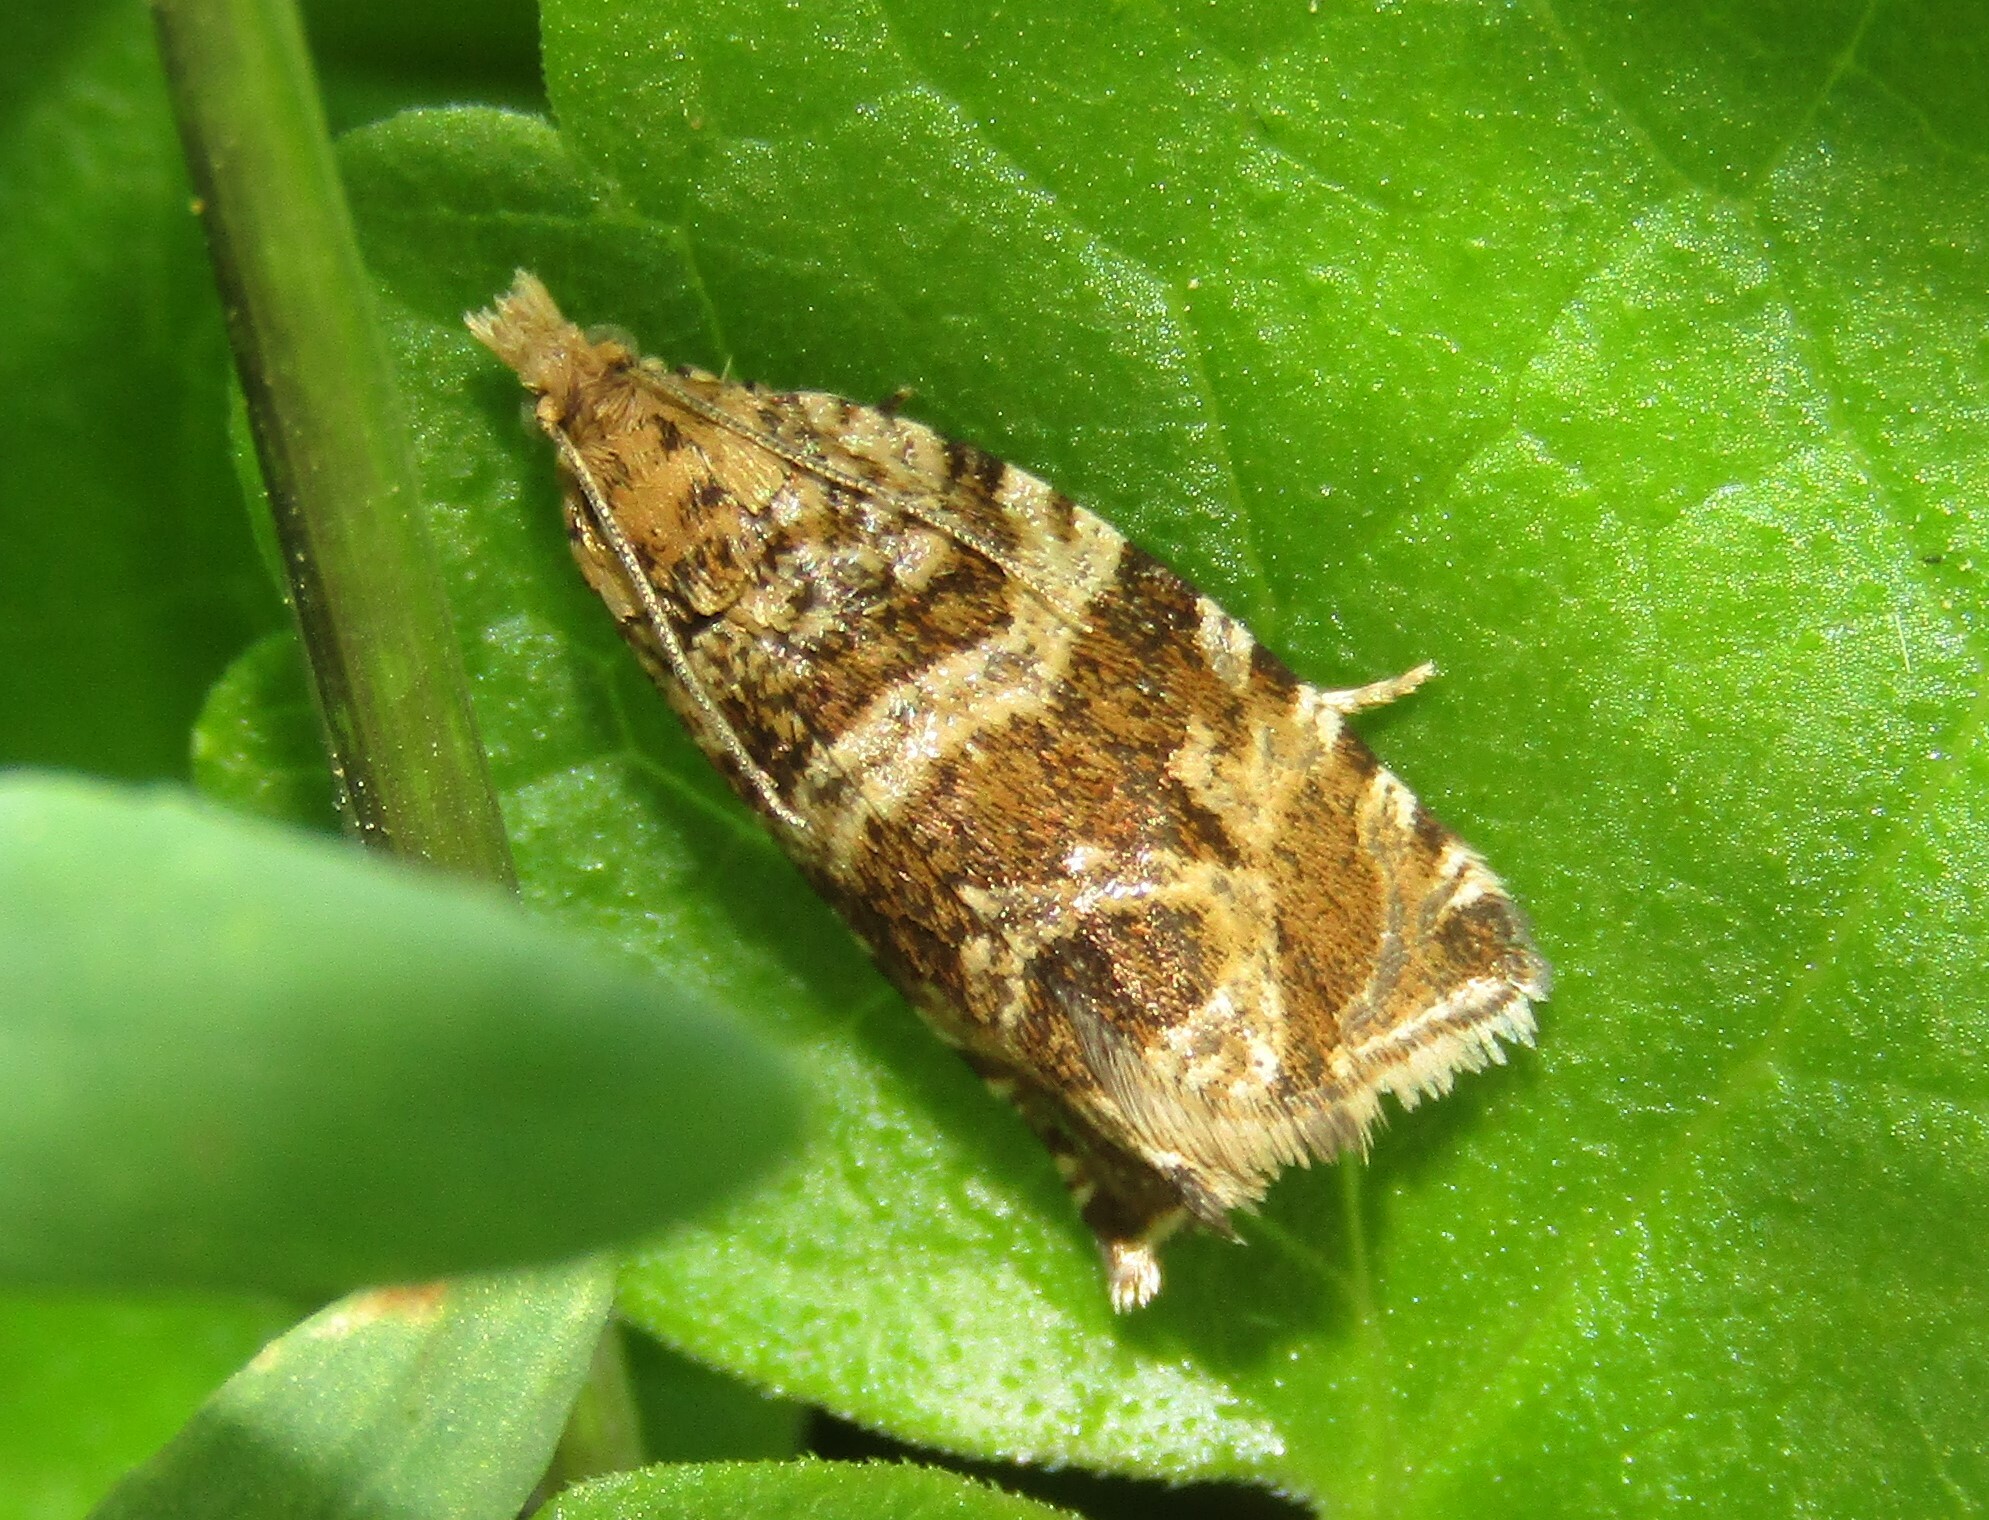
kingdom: Animalia
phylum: Arthropoda
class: Insecta
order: Lepidoptera
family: Tortricidae
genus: Syricoris
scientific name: Syricoris rivulana
